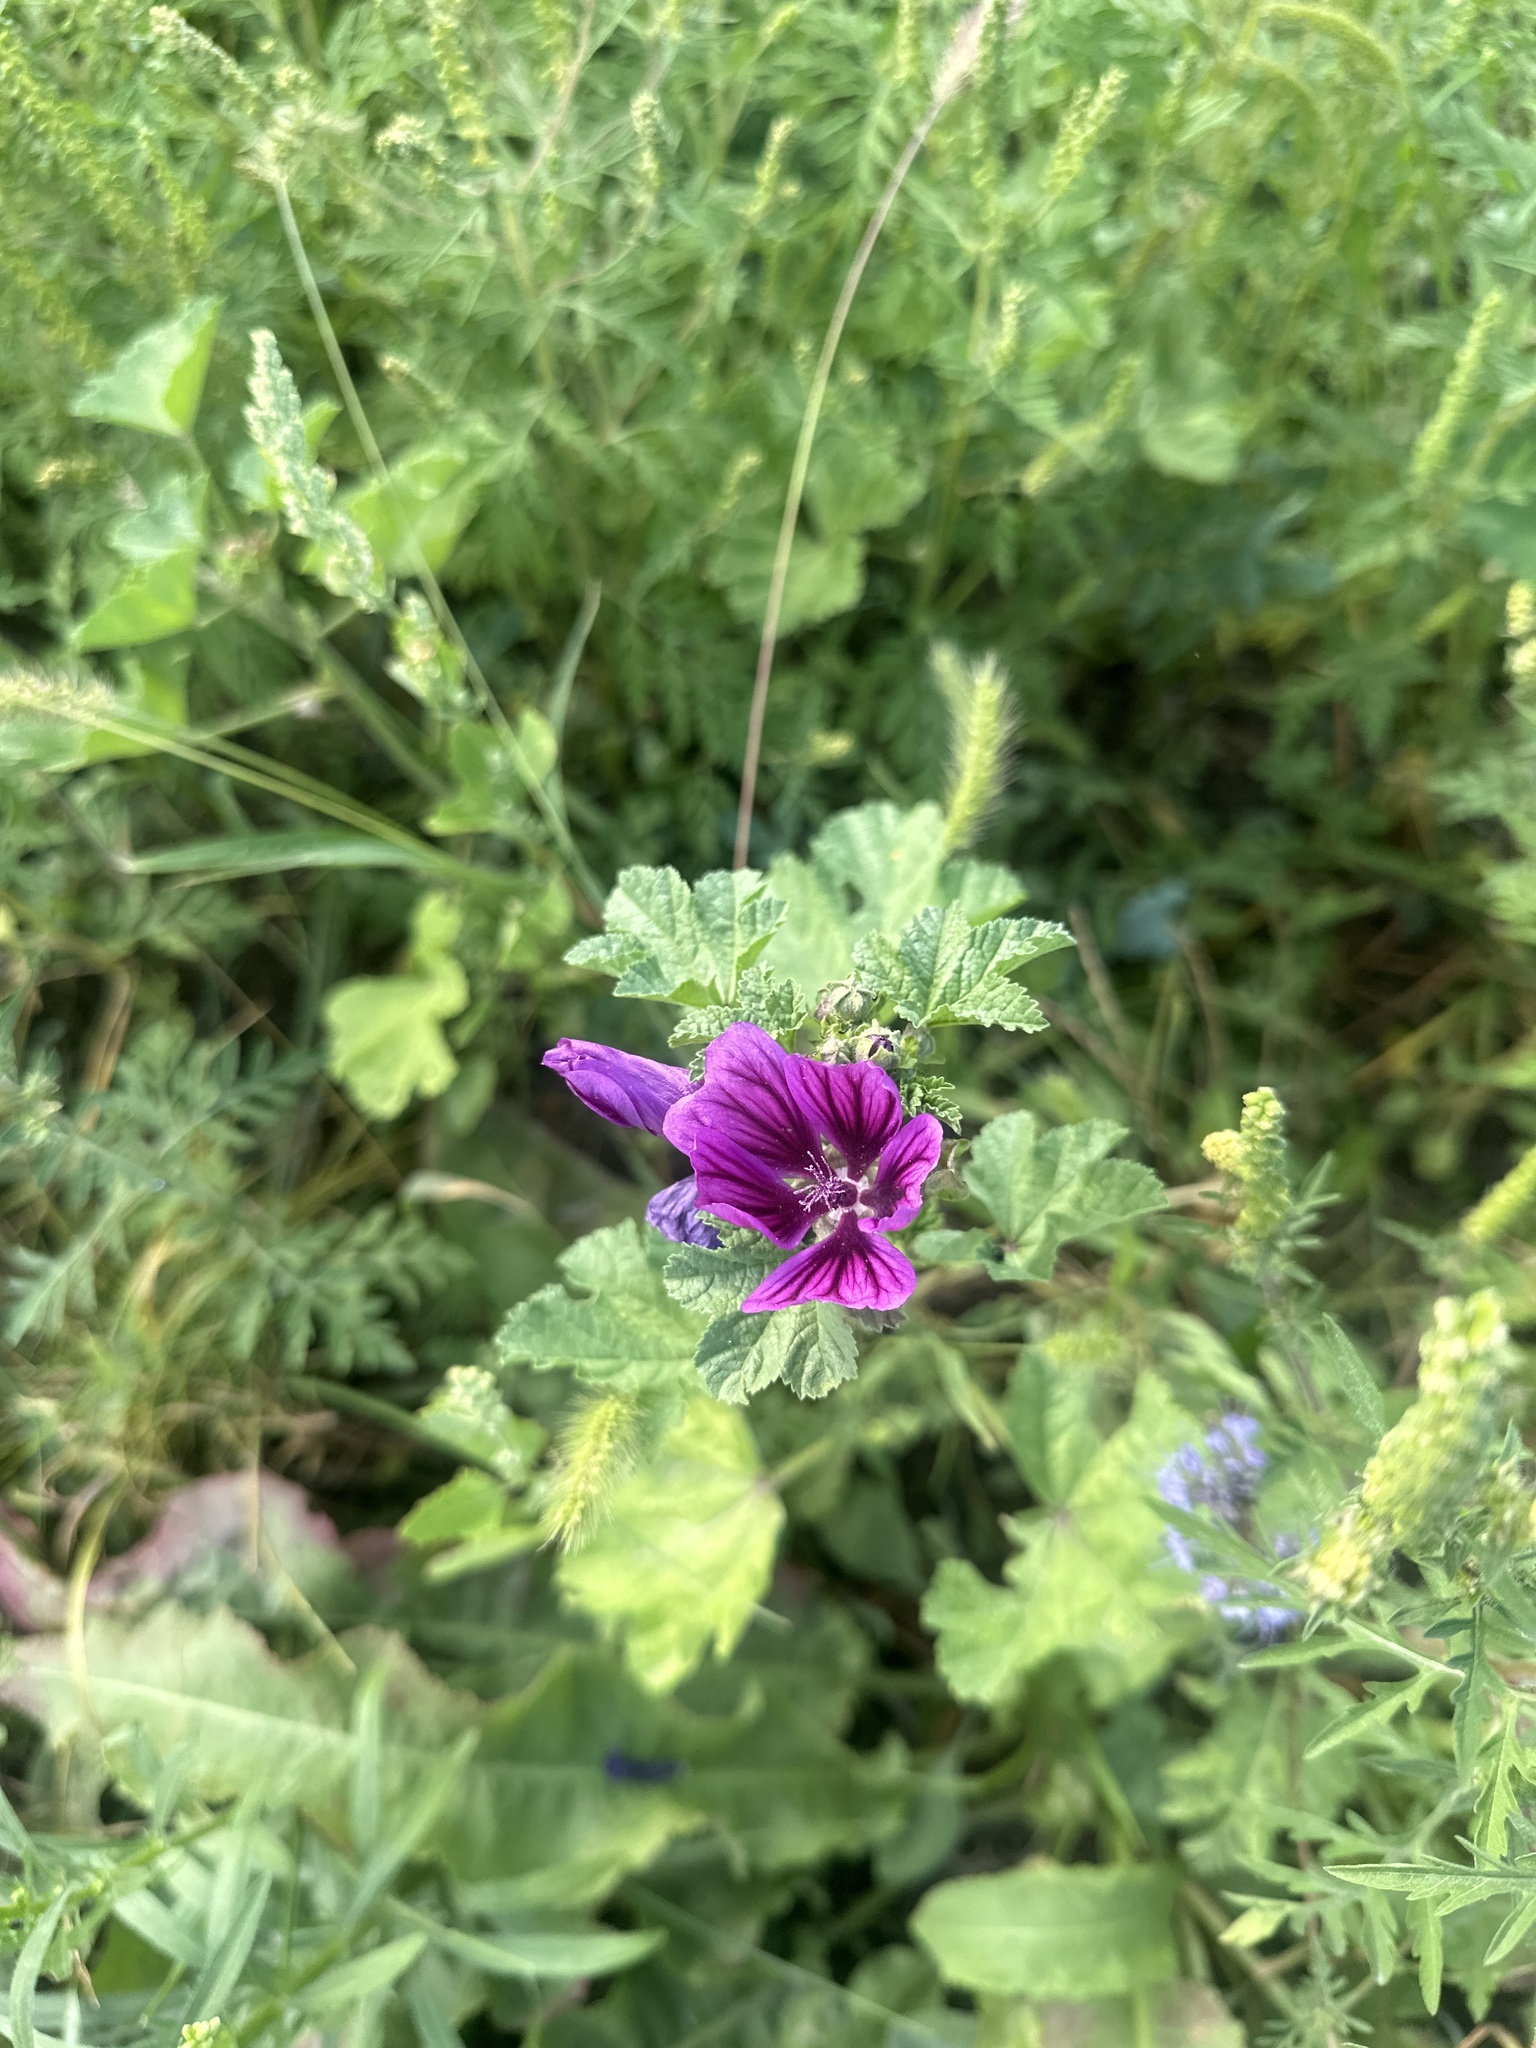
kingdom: Plantae
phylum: Tracheophyta
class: Magnoliopsida
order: Malvales
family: Malvaceae
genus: Malva
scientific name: Malva sylvestris
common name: Common mallow
